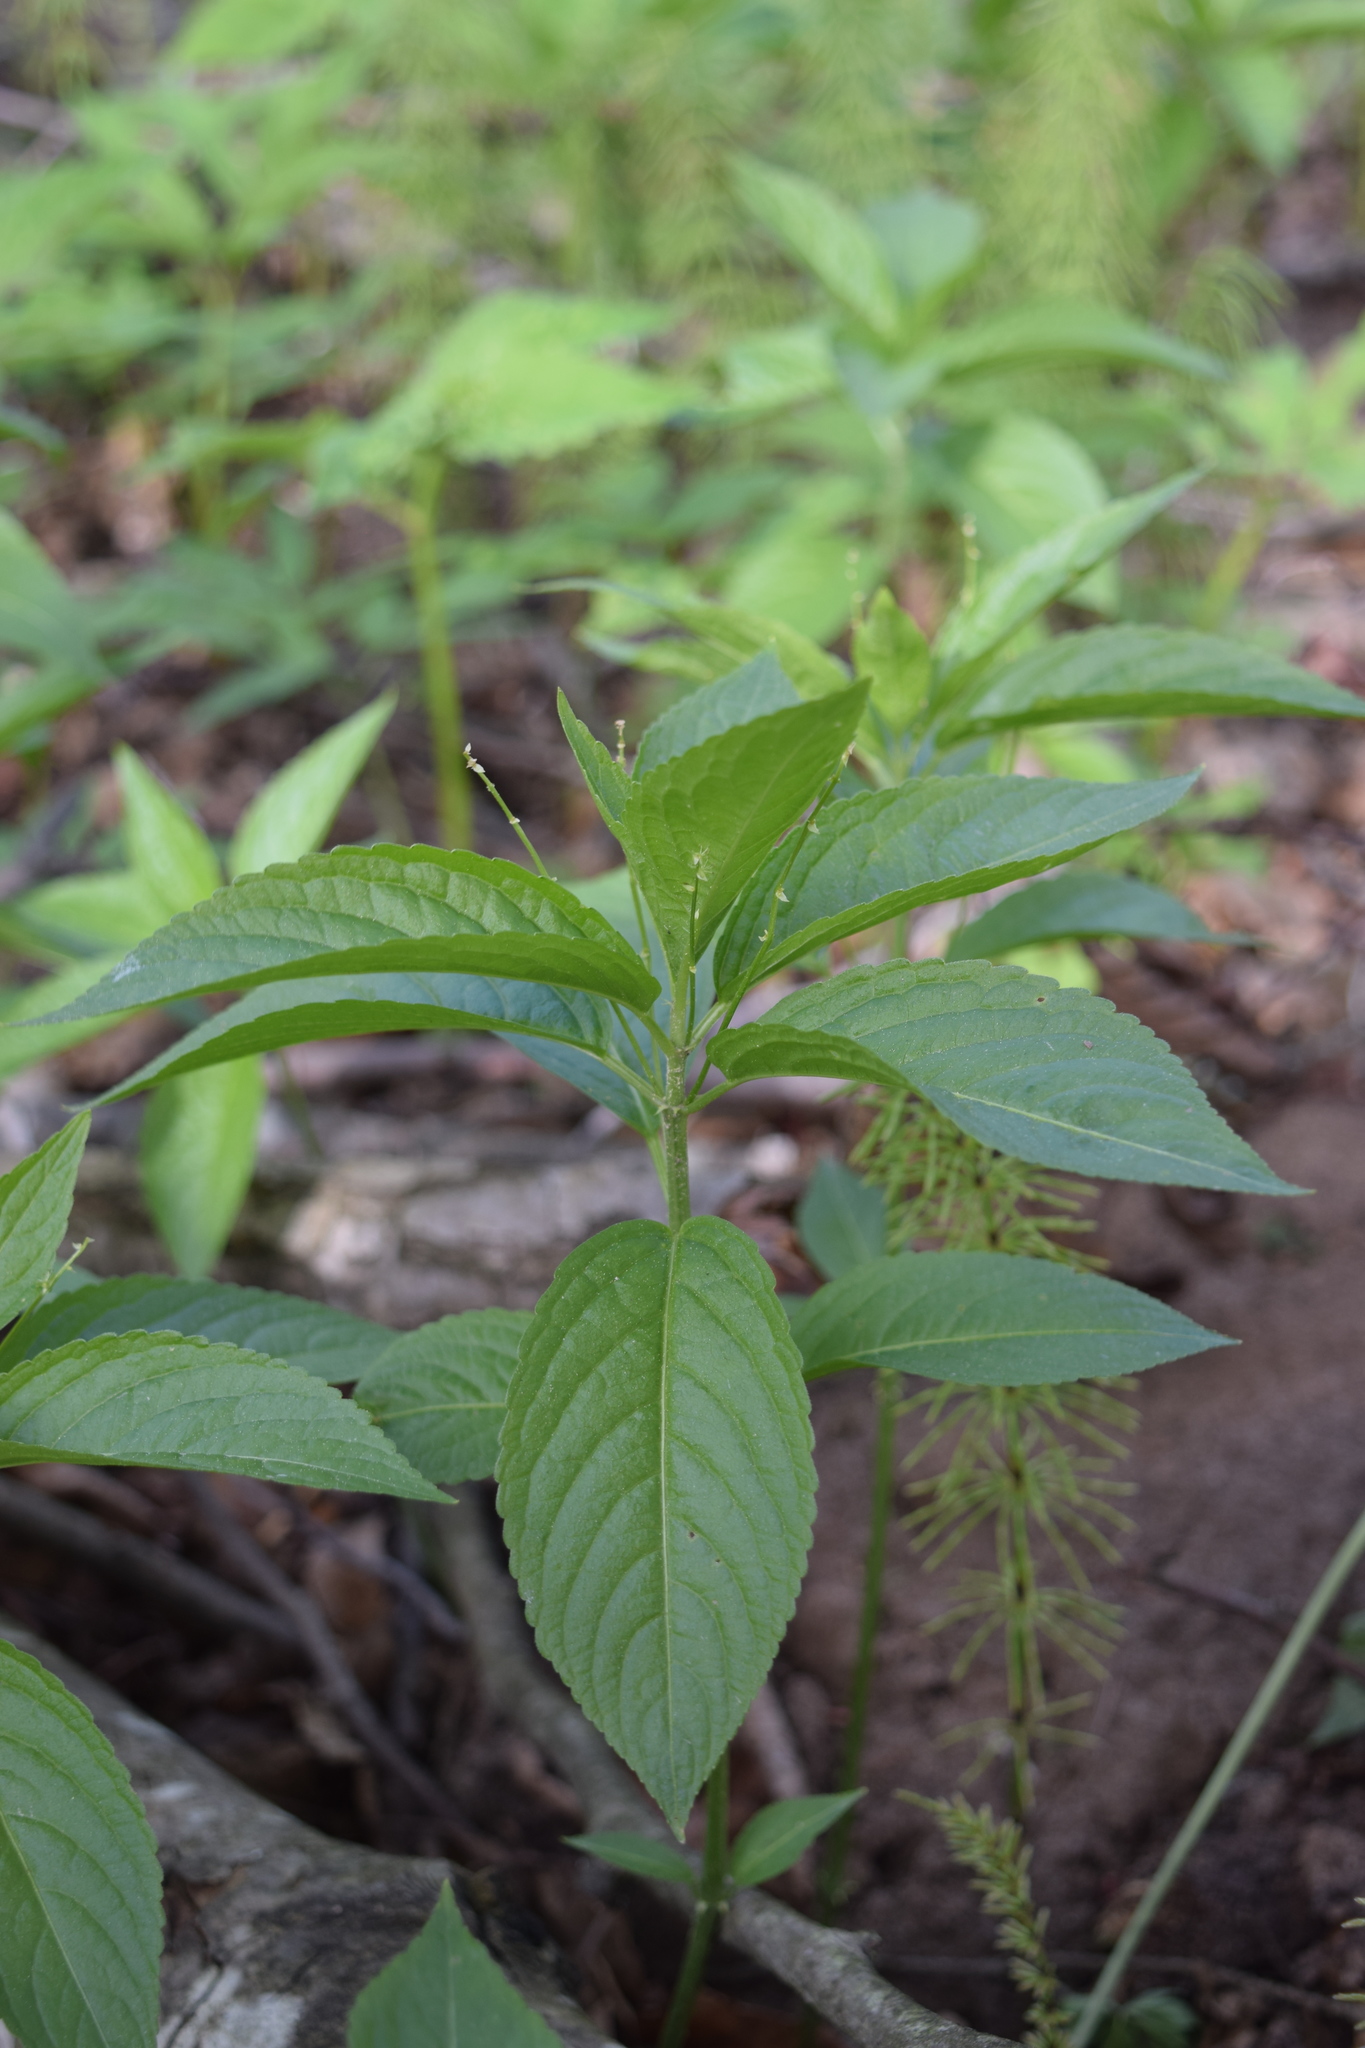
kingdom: Plantae
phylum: Tracheophyta
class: Magnoliopsida
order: Malpighiales
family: Euphorbiaceae
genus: Mercurialis
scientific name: Mercurialis perennis
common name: Dog mercury
